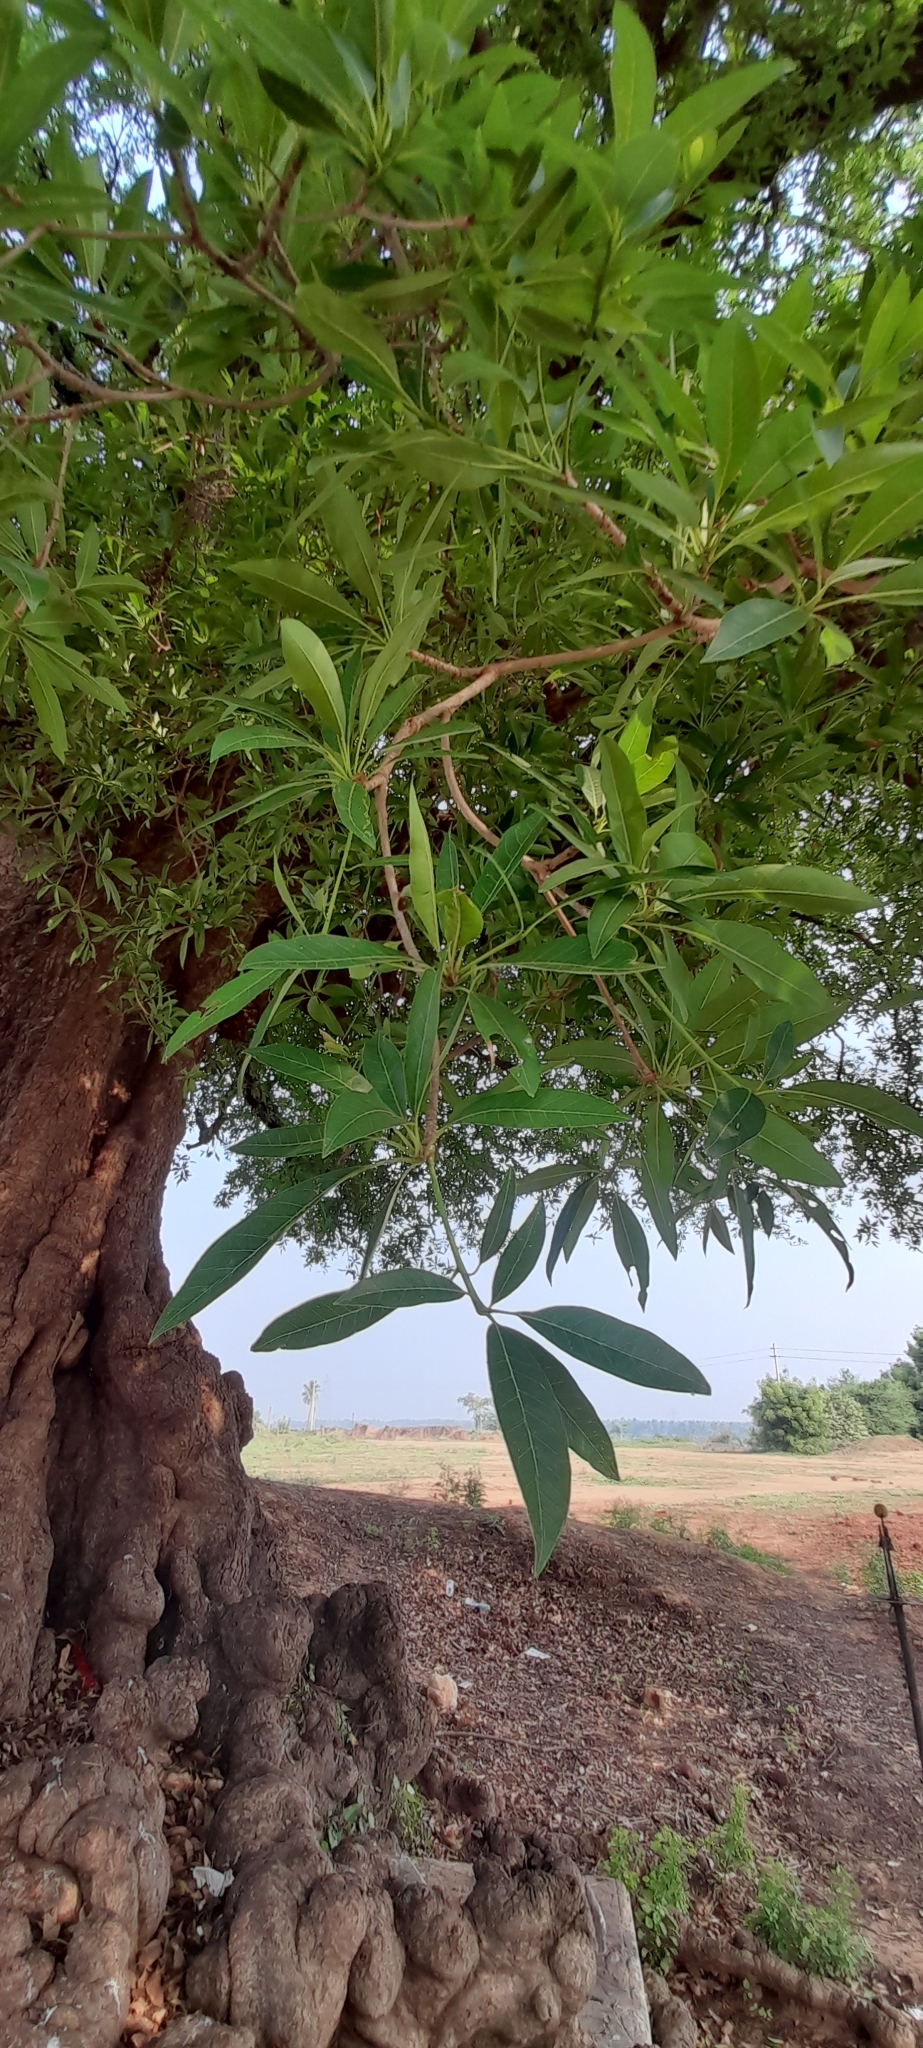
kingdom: Plantae
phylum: Tracheophyta
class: Magnoliopsida
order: Ericales
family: Sapotaceae
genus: Madhuca
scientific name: Madhuca longifolia
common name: Mowra-buttertree
